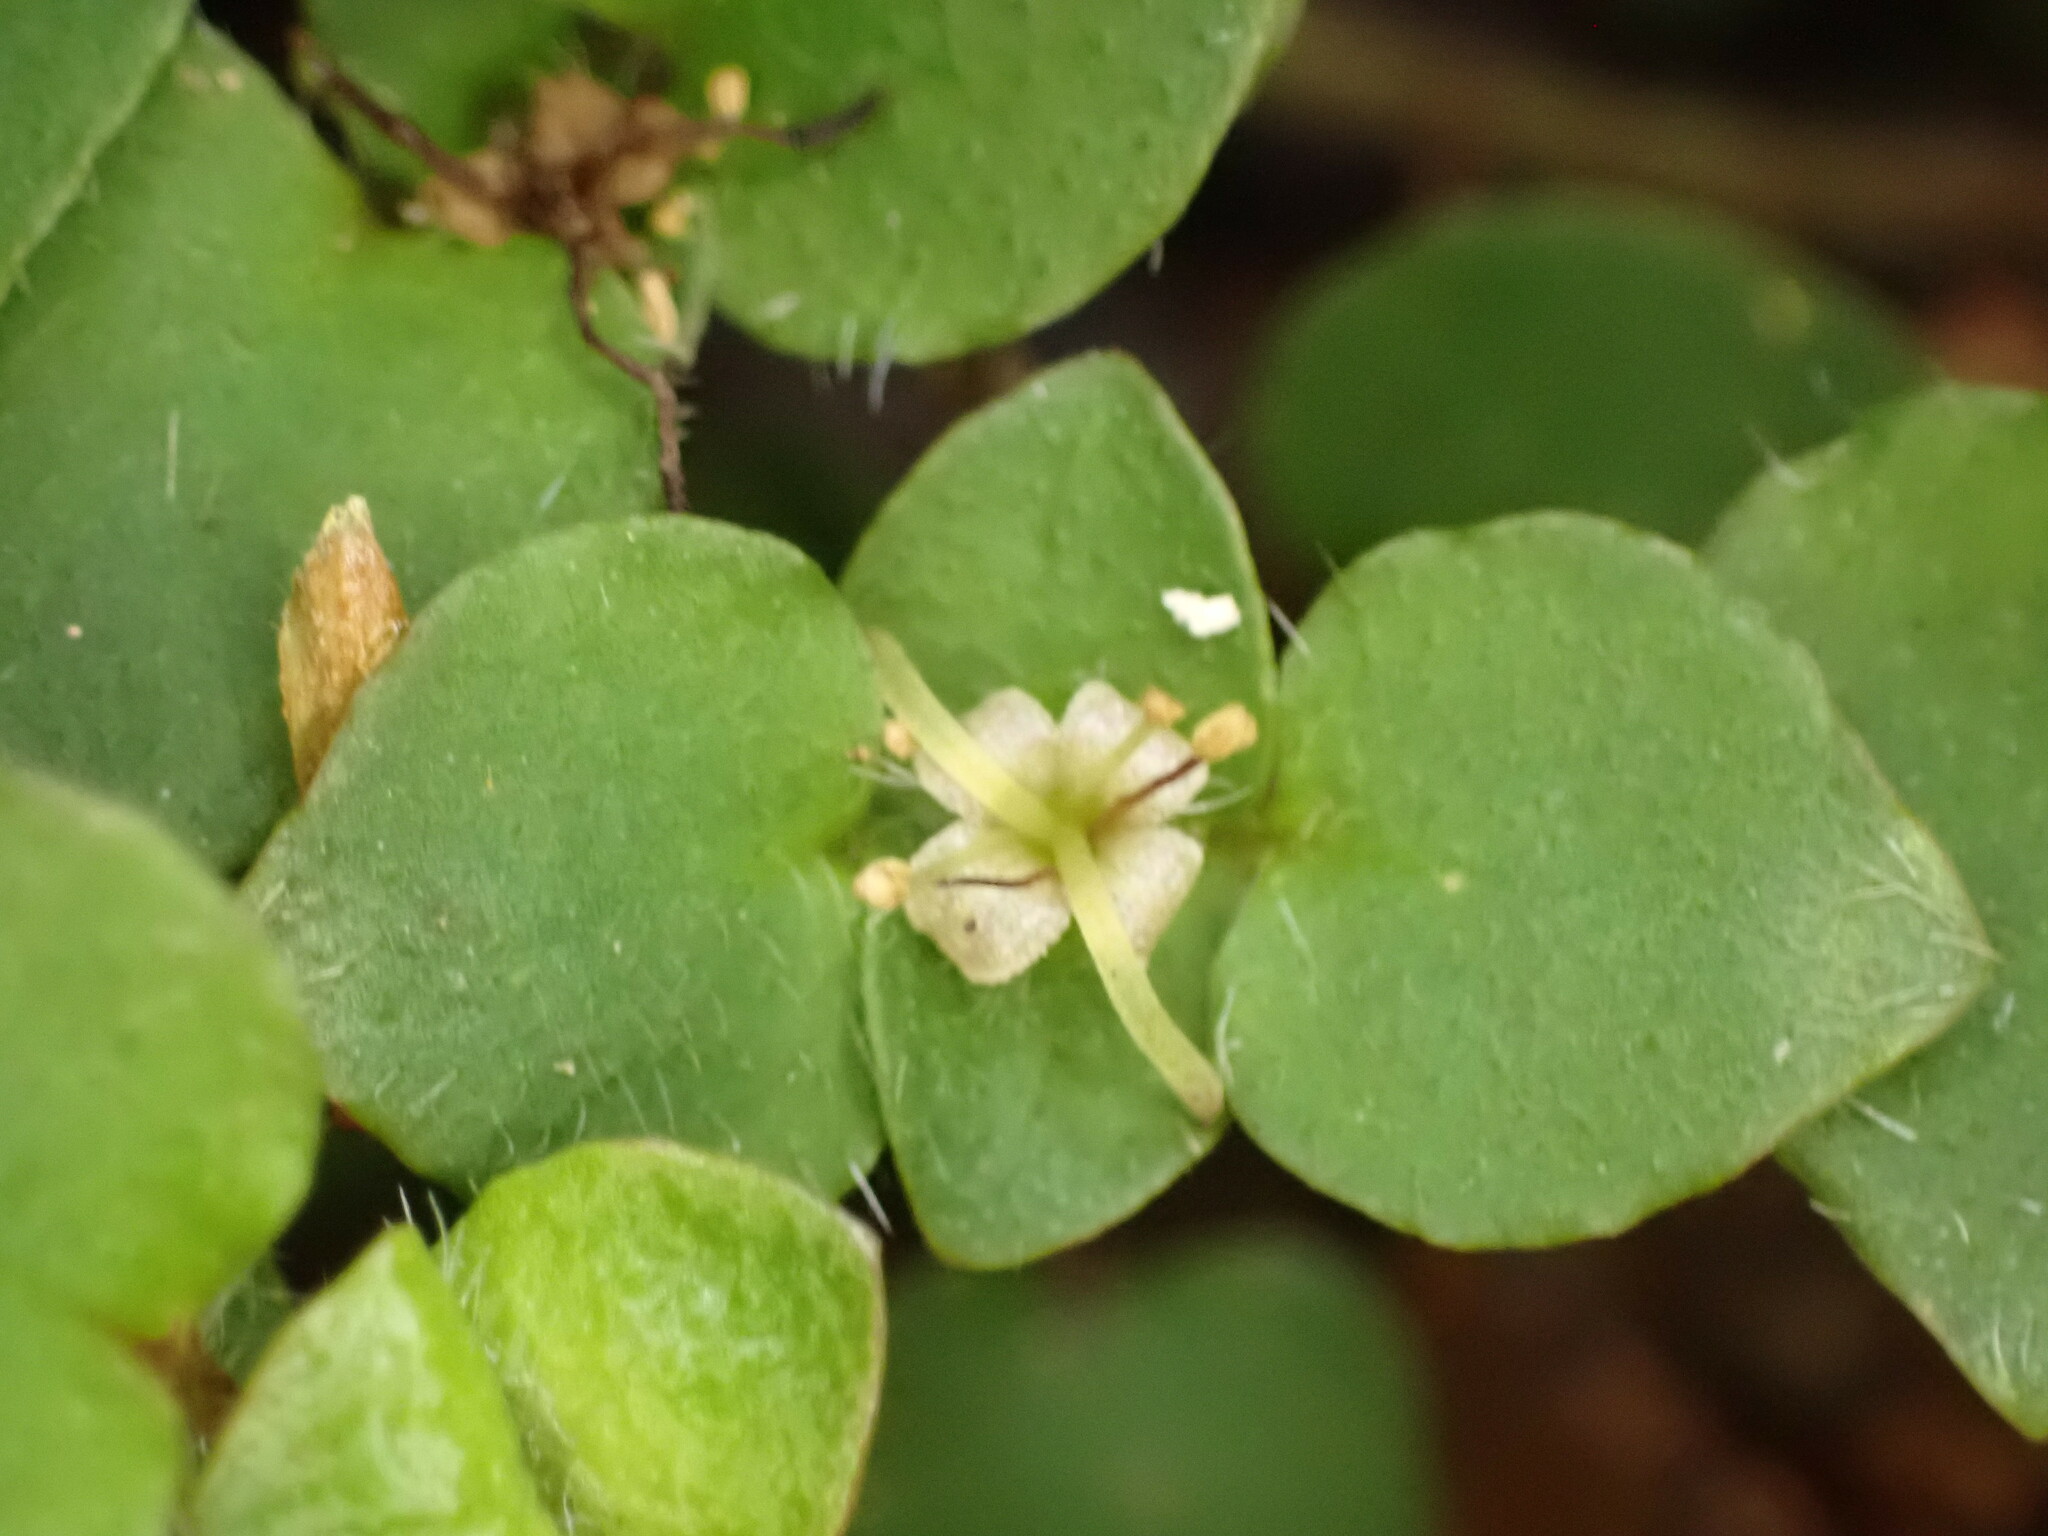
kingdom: Plantae
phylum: Tracheophyta
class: Magnoliopsida
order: Gentianales
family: Rubiaceae
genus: Nertera
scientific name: Nertera villosa
